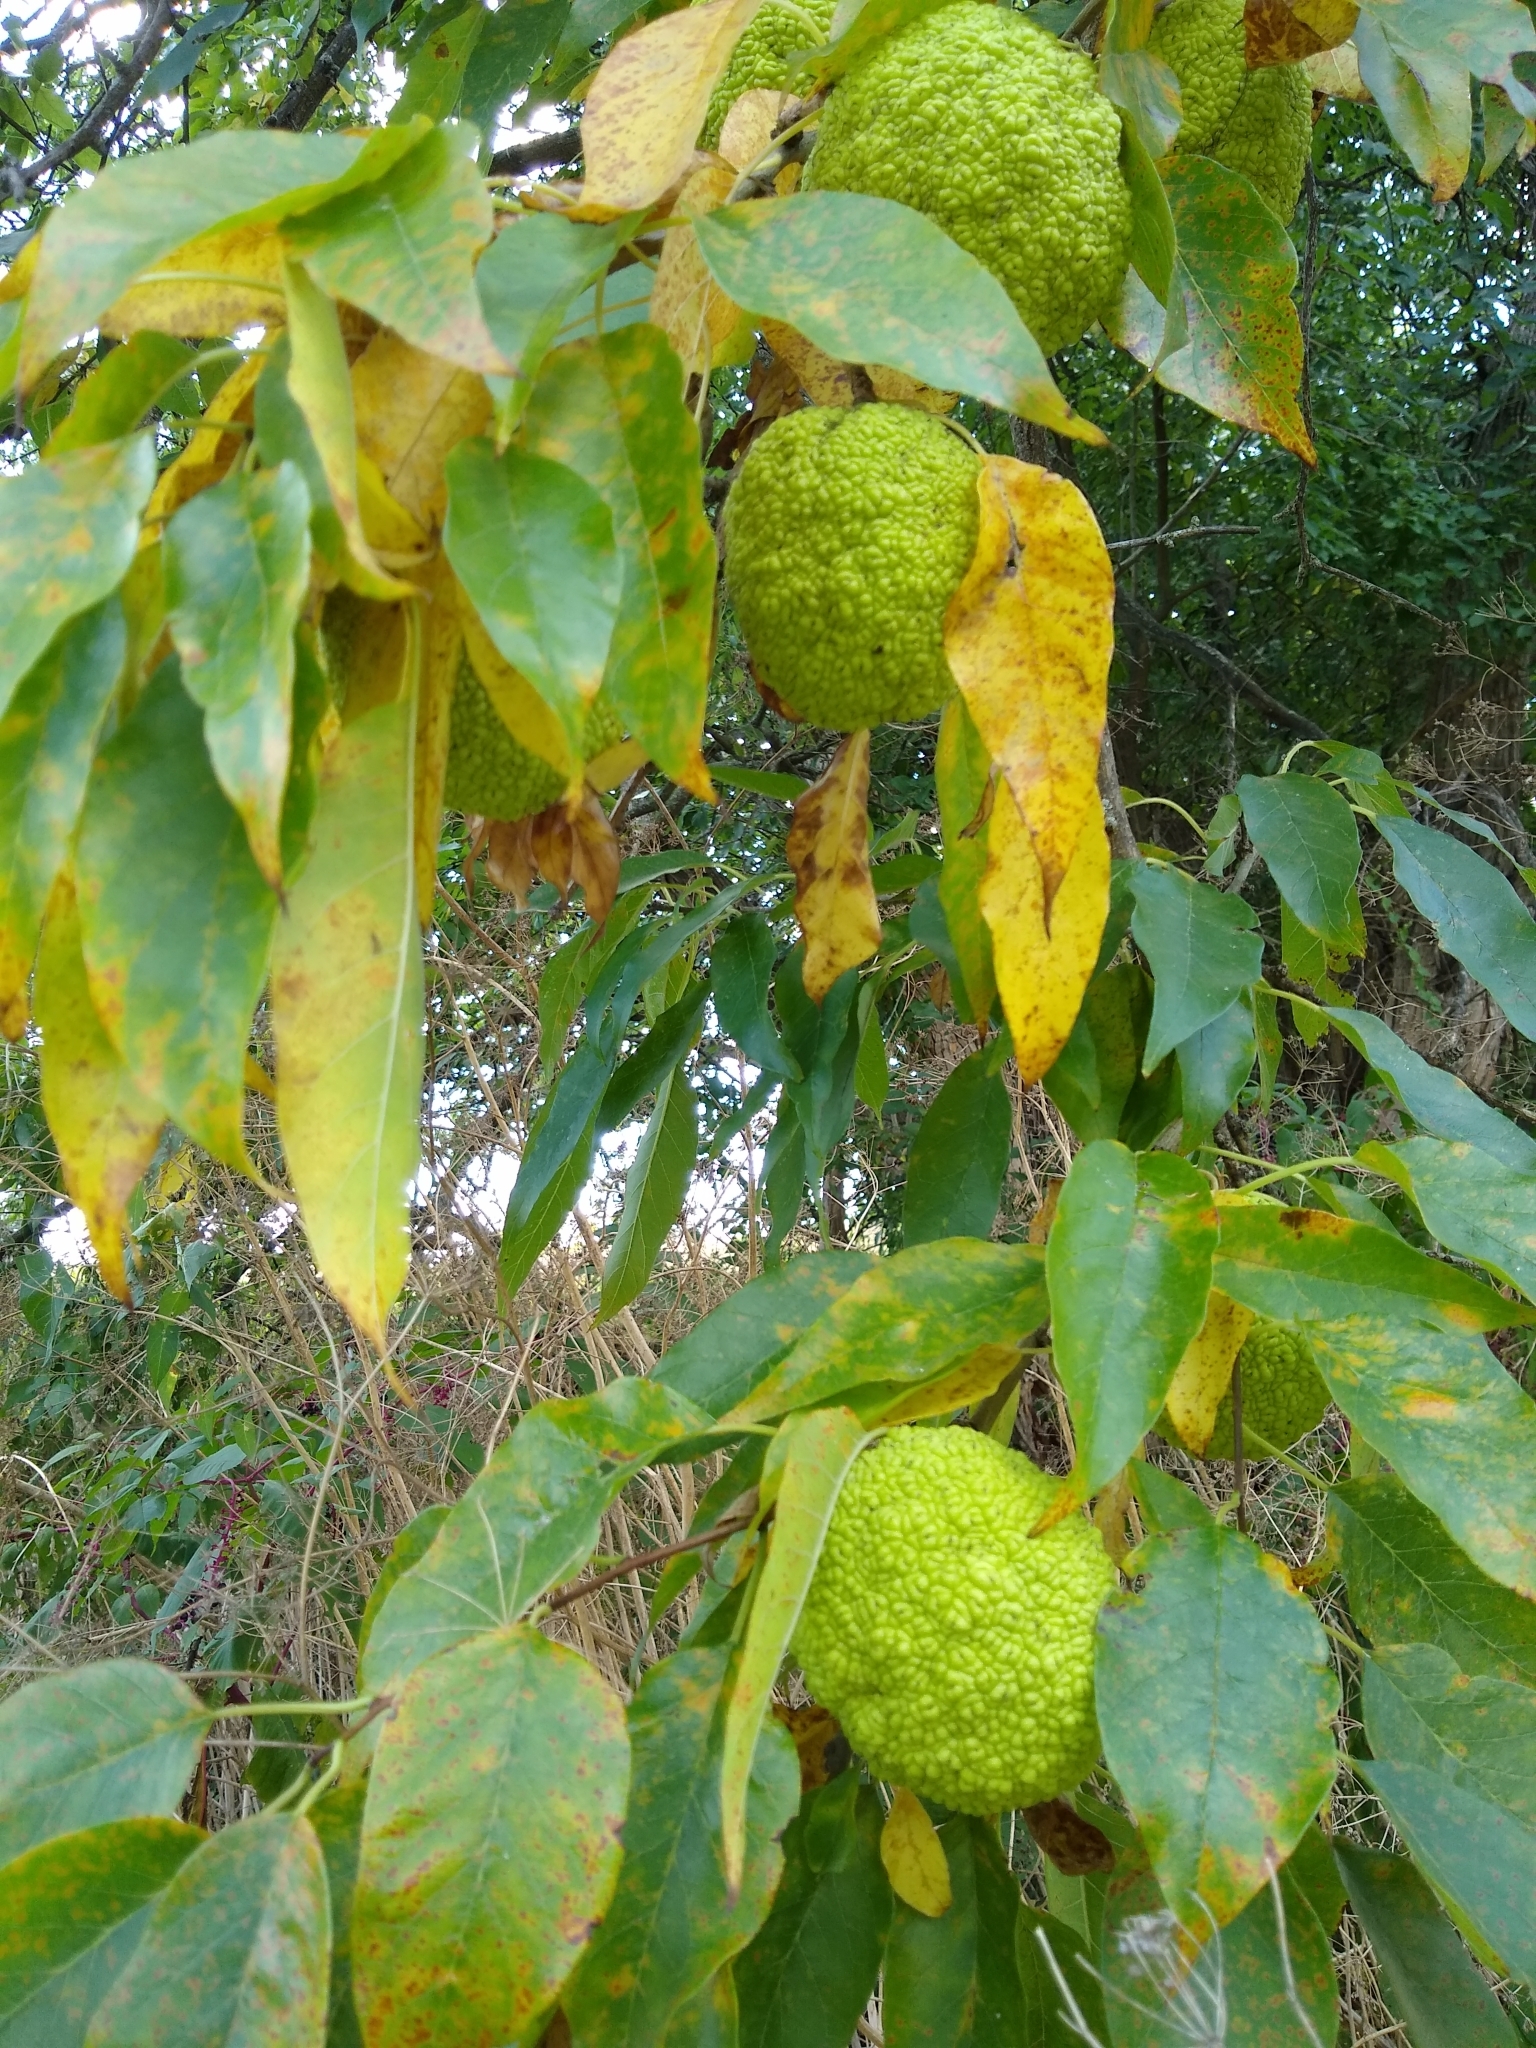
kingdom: Plantae
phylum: Tracheophyta
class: Magnoliopsida
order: Rosales
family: Moraceae
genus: Maclura
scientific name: Maclura pomifera
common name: Osage-orange
